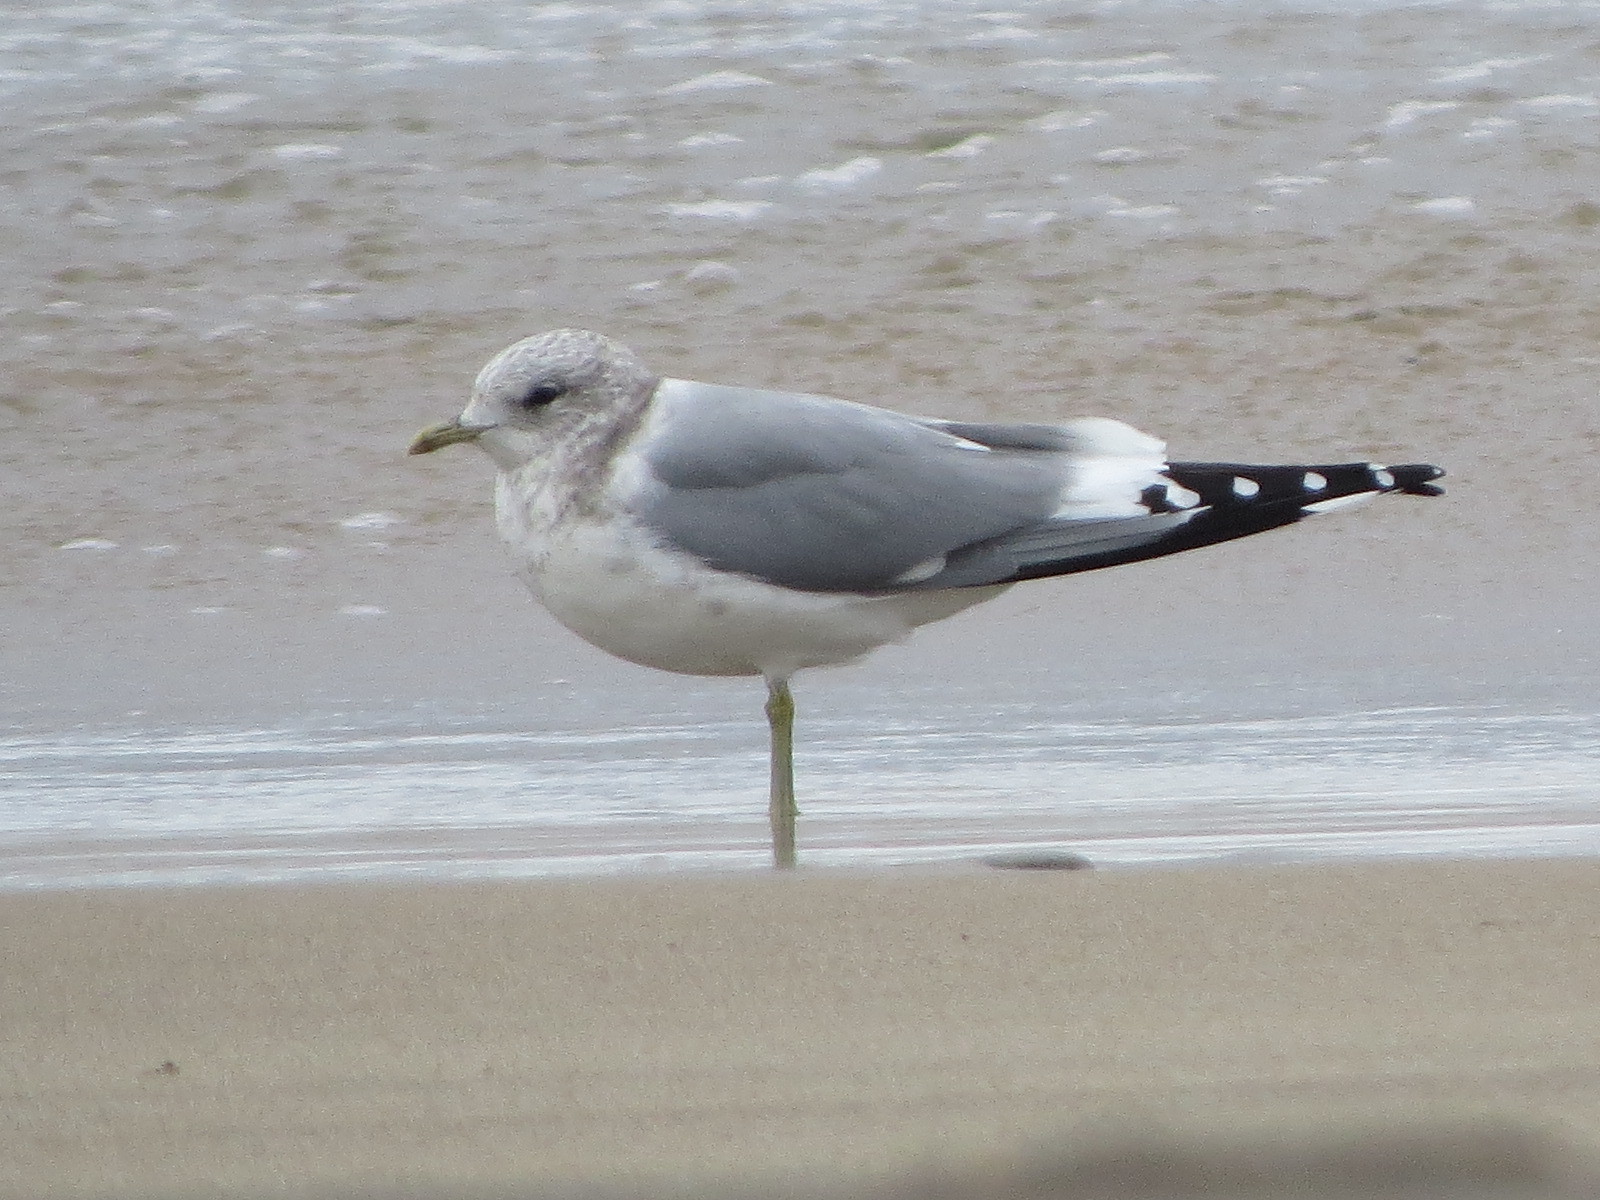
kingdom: Animalia
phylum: Chordata
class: Aves
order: Charadriiformes
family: Laridae
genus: Larus
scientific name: Larus brachyrhynchus
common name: Short-billed gull
